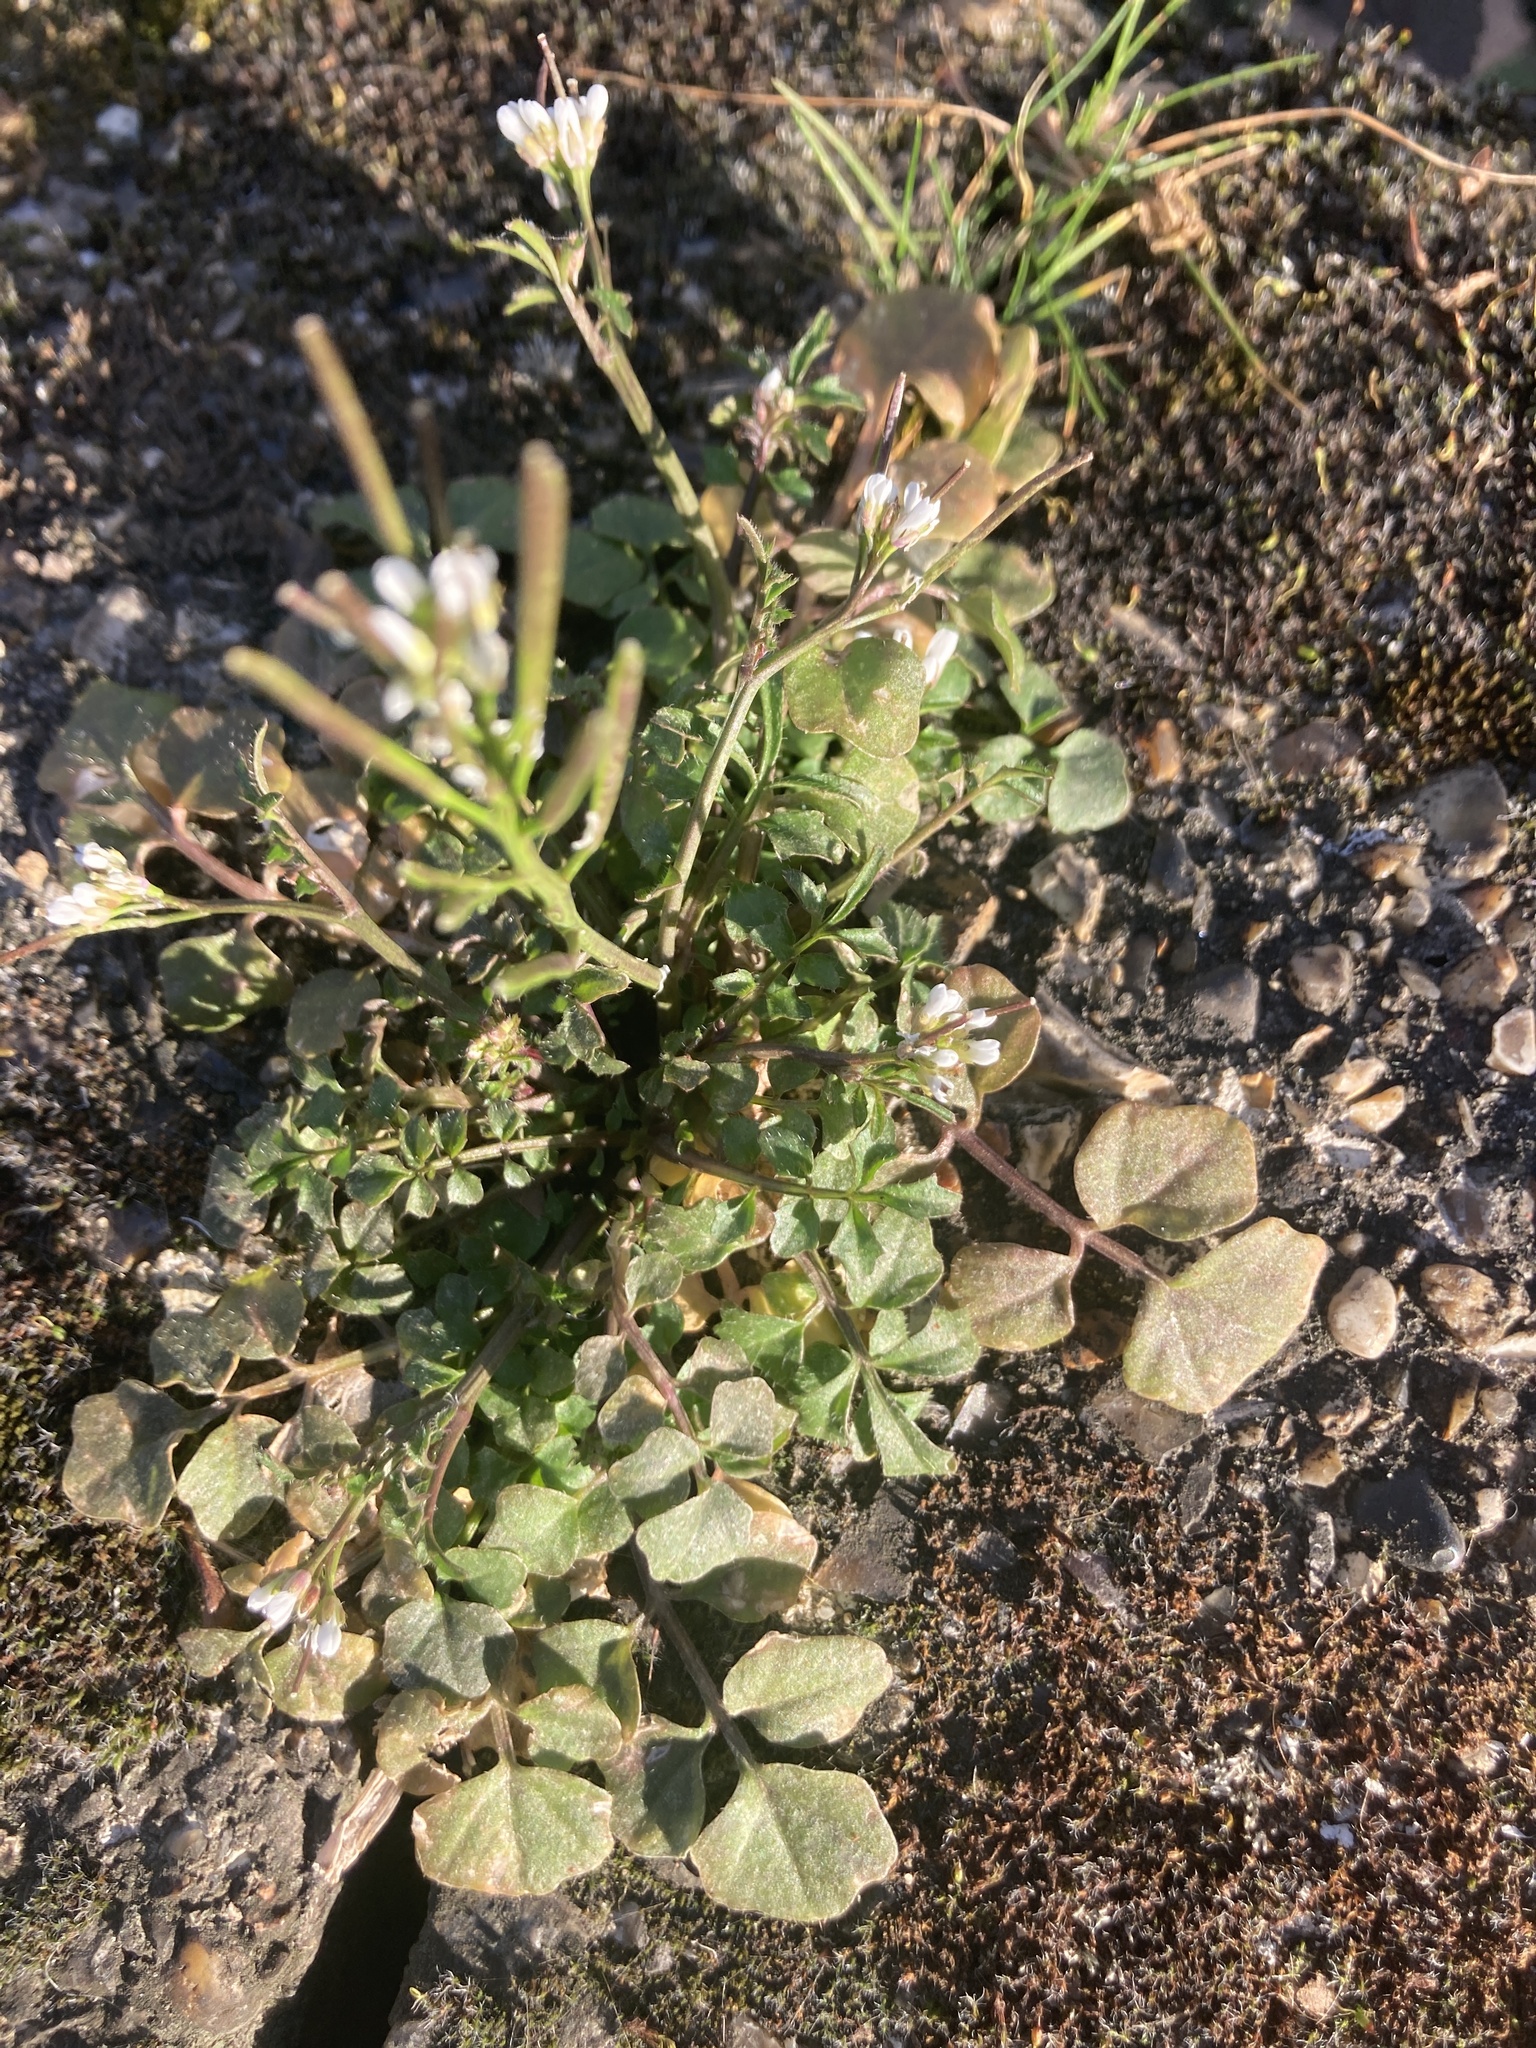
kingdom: Plantae
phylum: Tracheophyta
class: Magnoliopsida
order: Brassicales
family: Brassicaceae
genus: Cardamine
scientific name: Cardamine hirsuta
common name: Hairy bittercress
